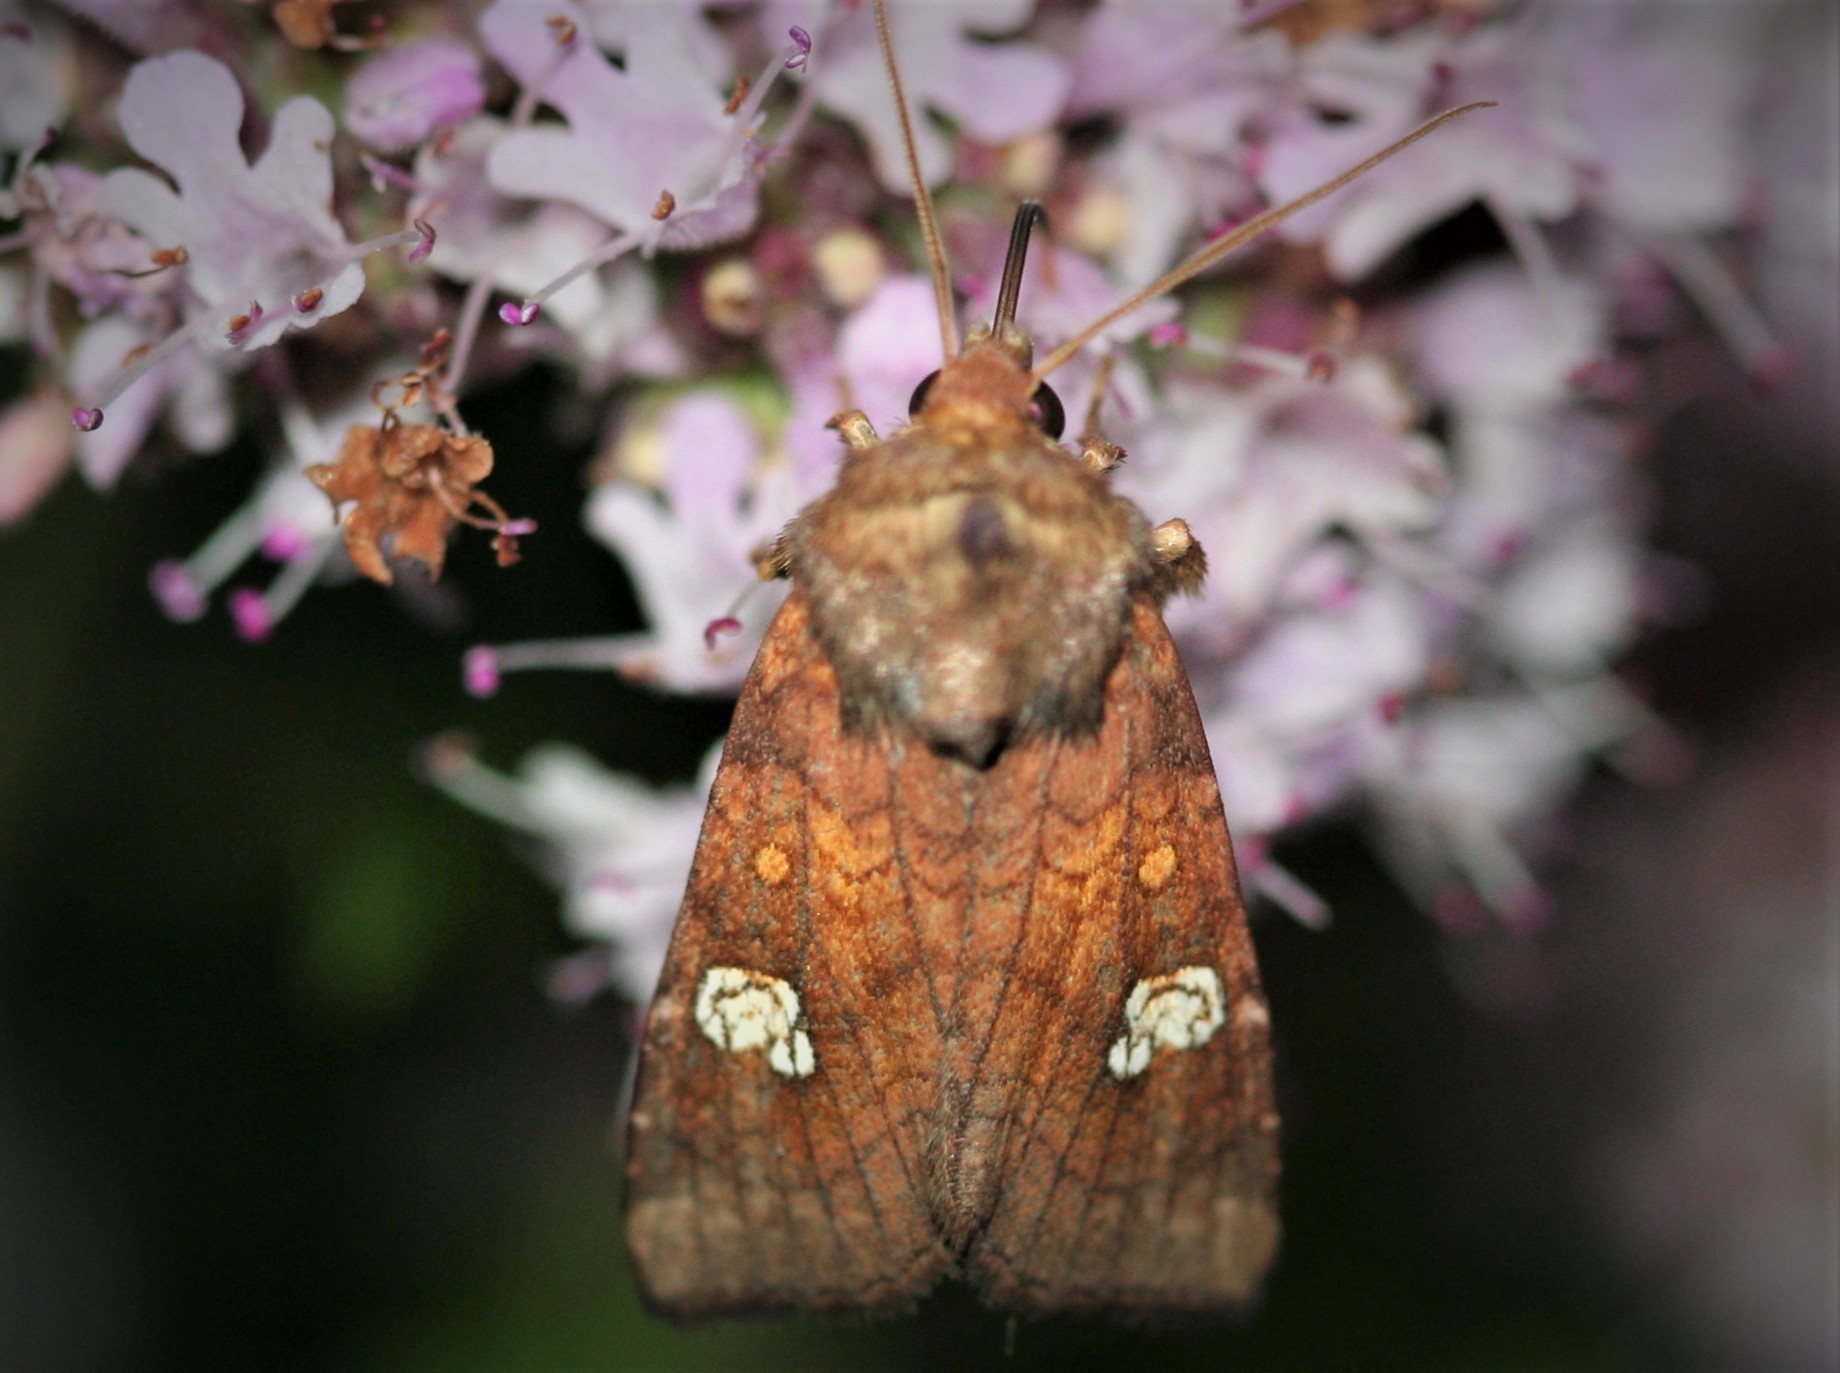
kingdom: Animalia
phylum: Arthropoda
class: Insecta
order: Lepidoptera
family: Noctuidae
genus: Amphipoea
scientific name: Amphipoea oculea
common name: Ear moth
